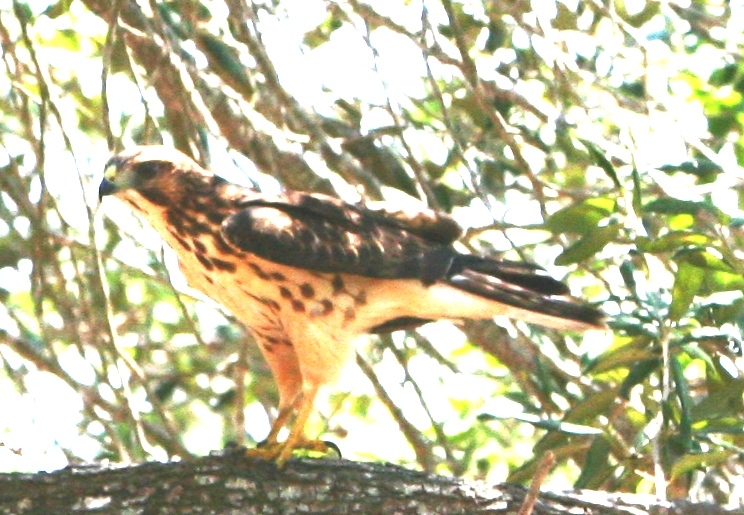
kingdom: Animalia
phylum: Chordata
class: Aves
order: Accipitriformes
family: Accipitridae
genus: Buteo
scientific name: Buteo platypterus
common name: Broad-winged hawk
